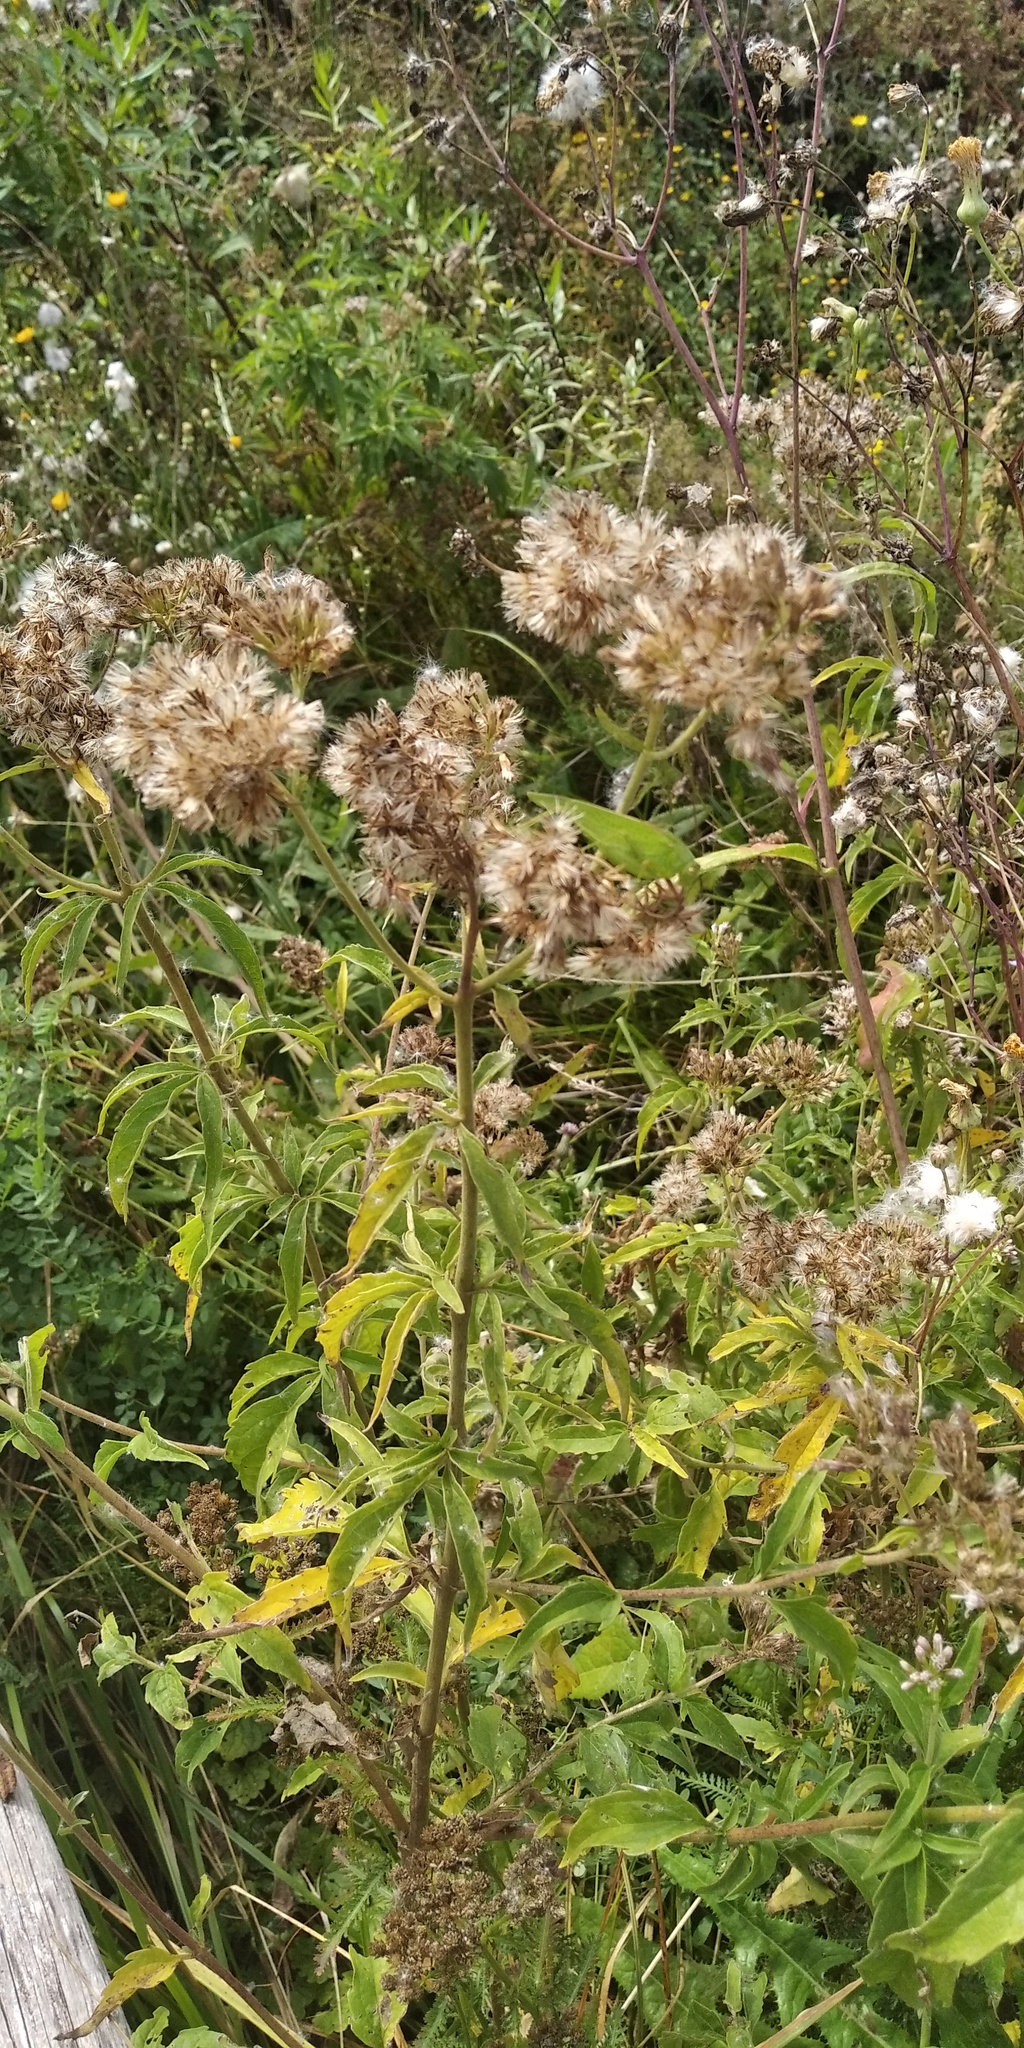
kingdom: Plantae
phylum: Tracheophyta
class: Magnoliopsida
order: Asterales
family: Asteraceae
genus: Eupatorium
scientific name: Eupatorium cannabinum
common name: Hemp-agrimony
